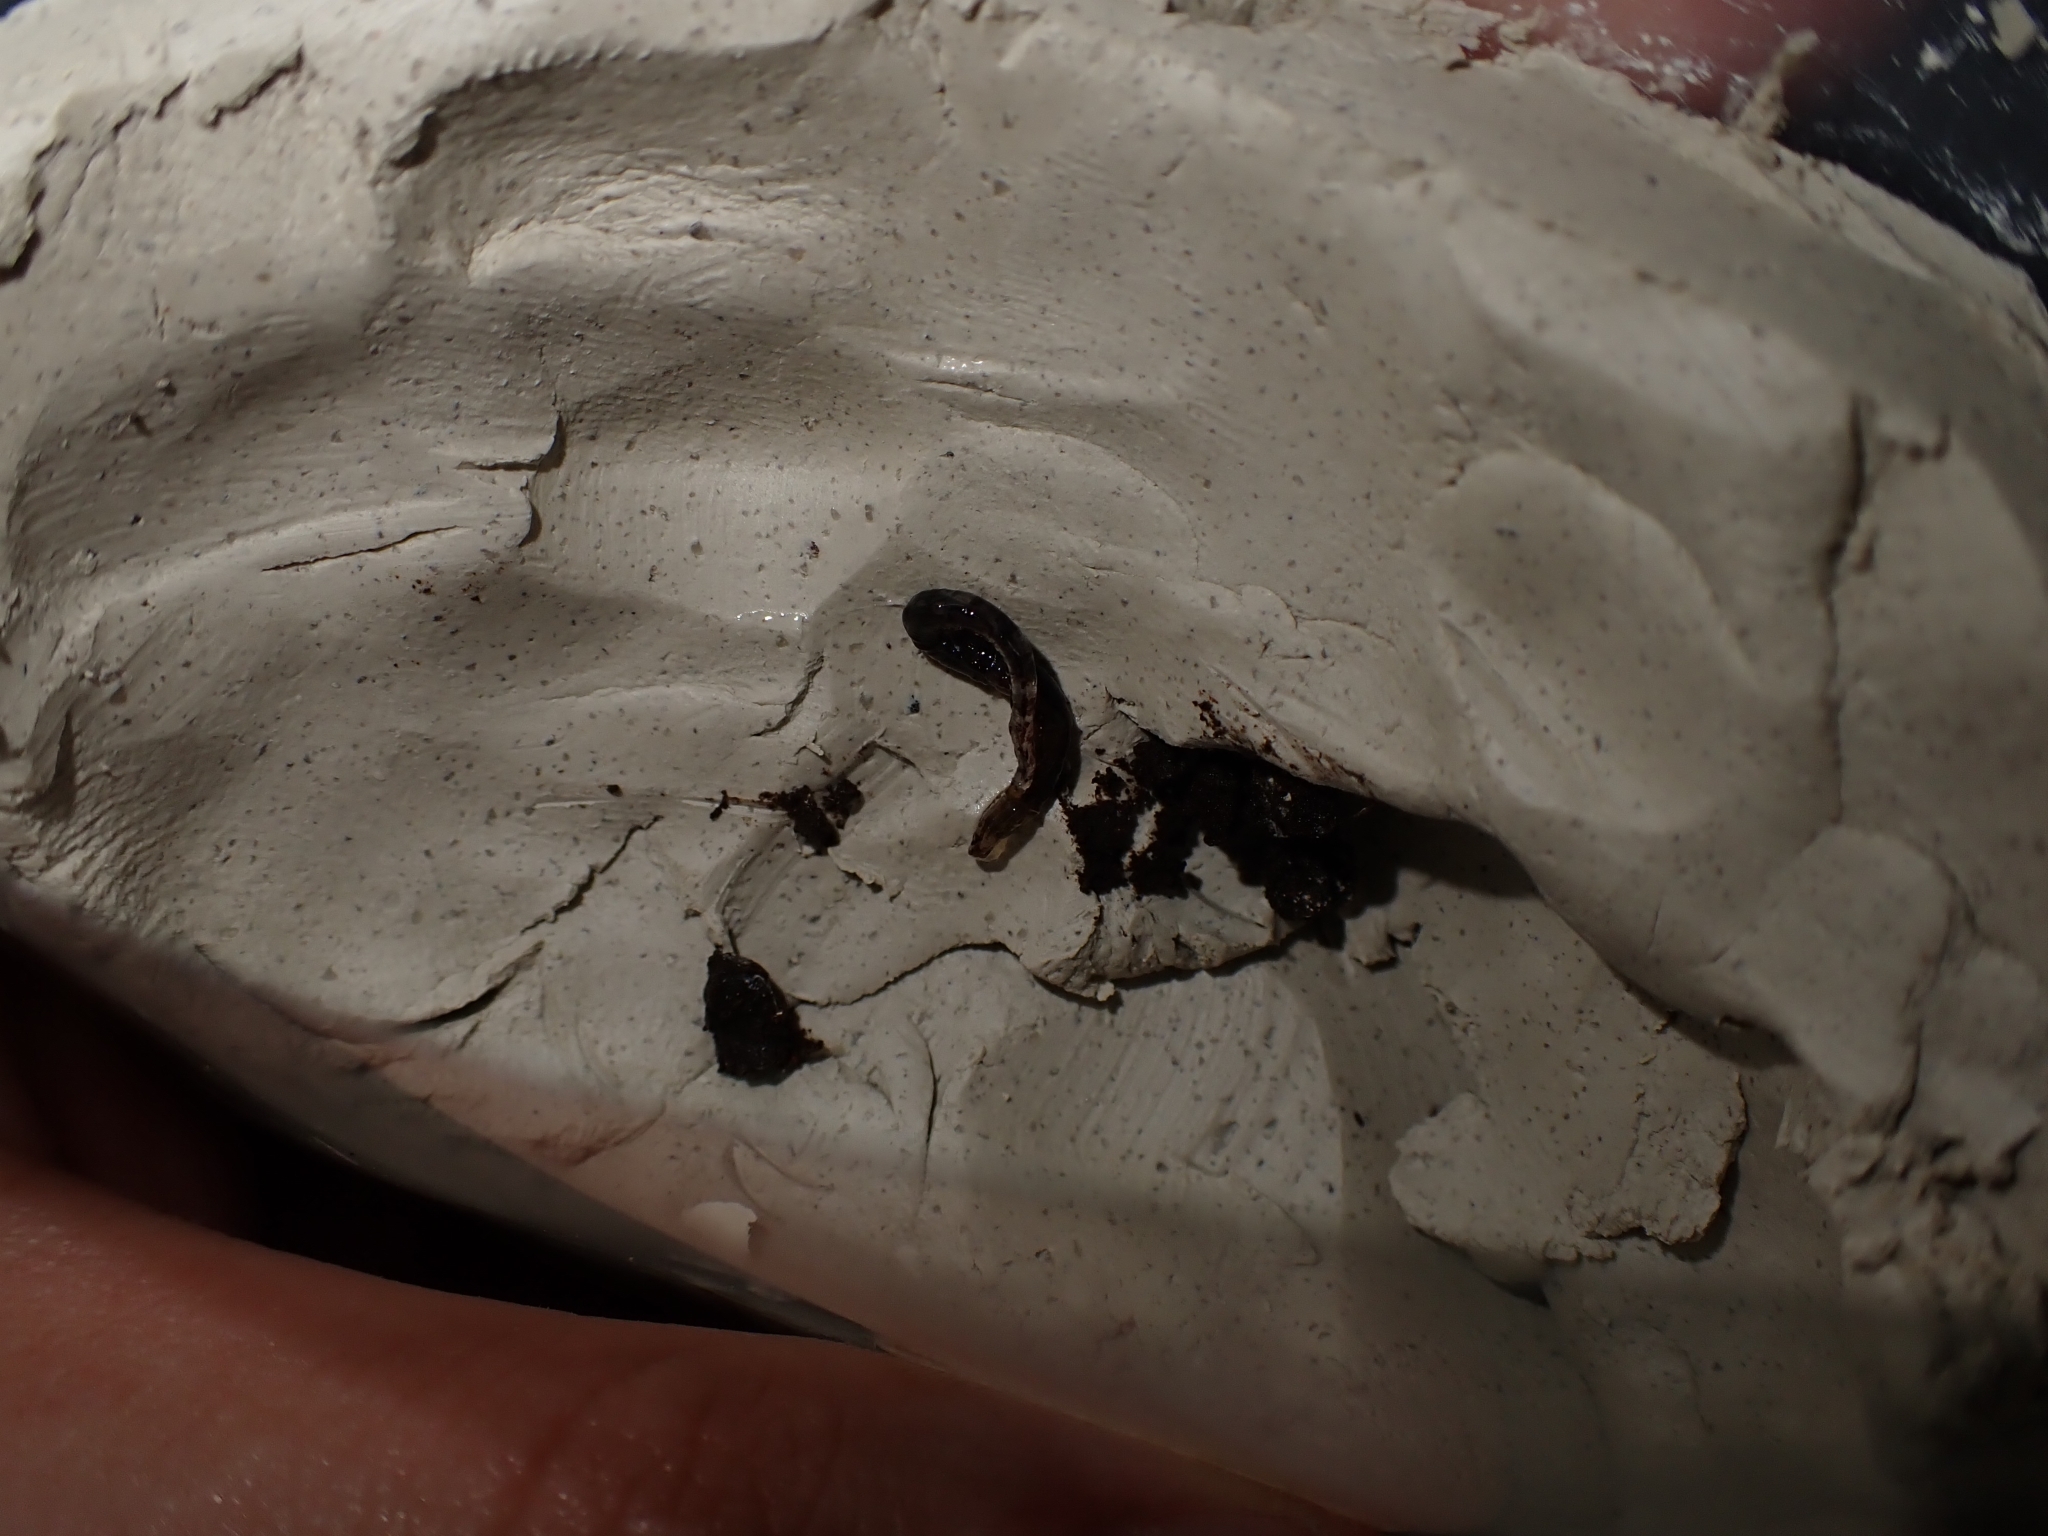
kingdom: Animalia
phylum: Arthropoda
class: Insecta
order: Diptera
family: Keroplatidae
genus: Arachnocampa
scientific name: Arachnocampa luminosa
